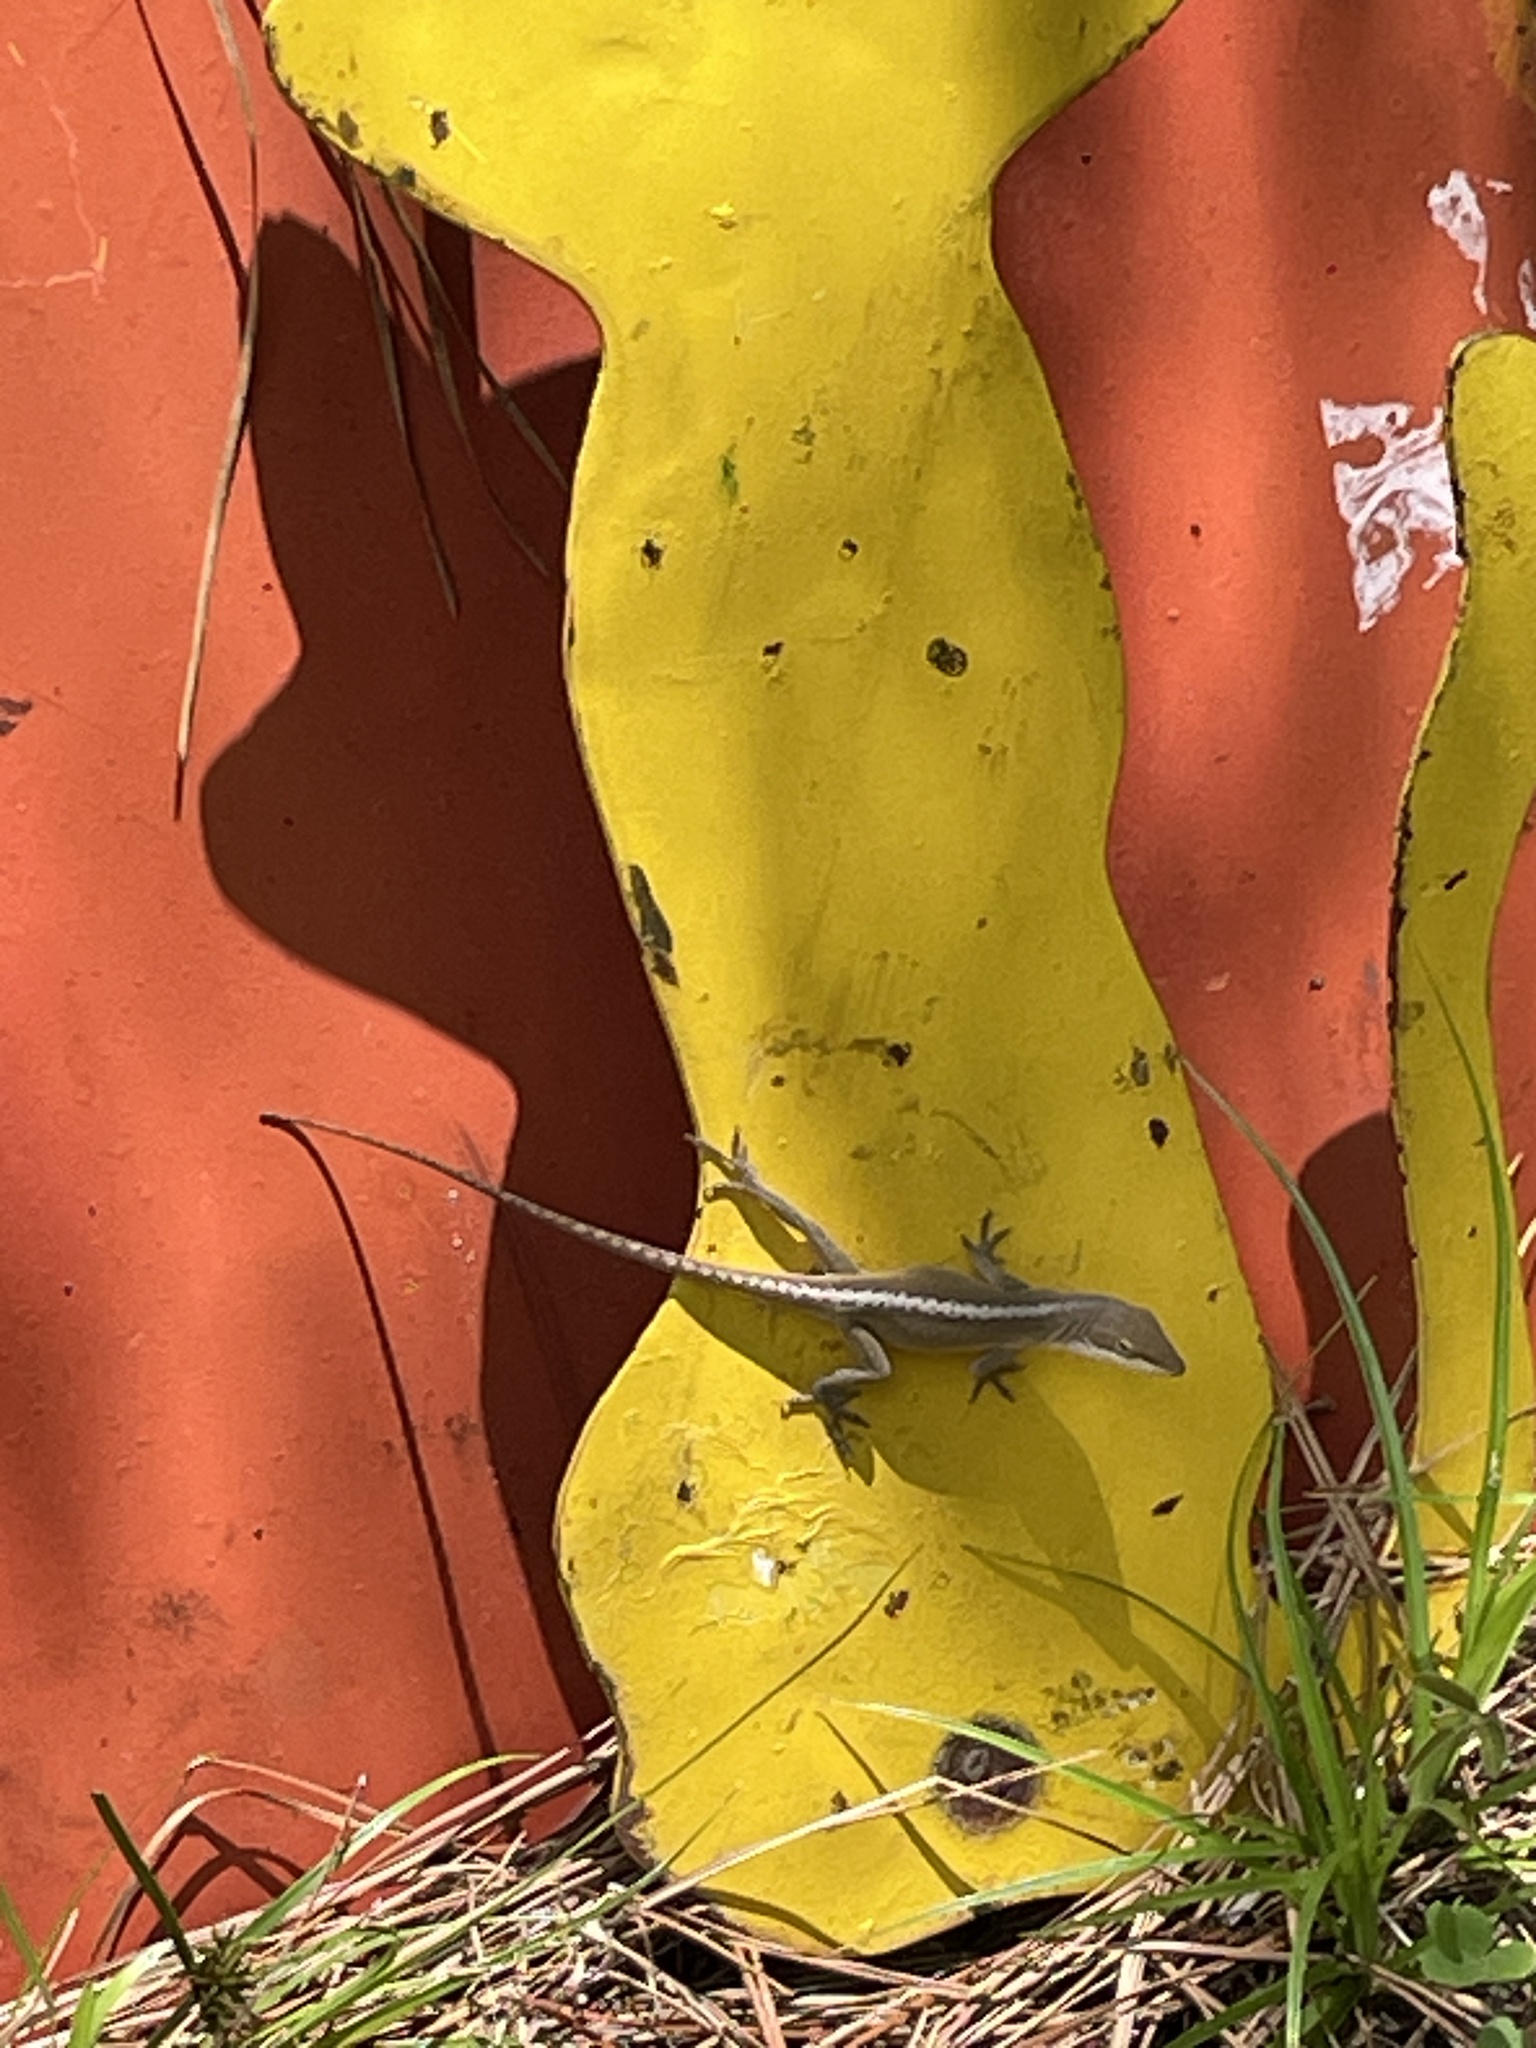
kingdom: Animalia
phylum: Chordata
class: Squamata
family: Dactyloidae
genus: Anolis
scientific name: Anolis carolinensis
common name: Green anole
